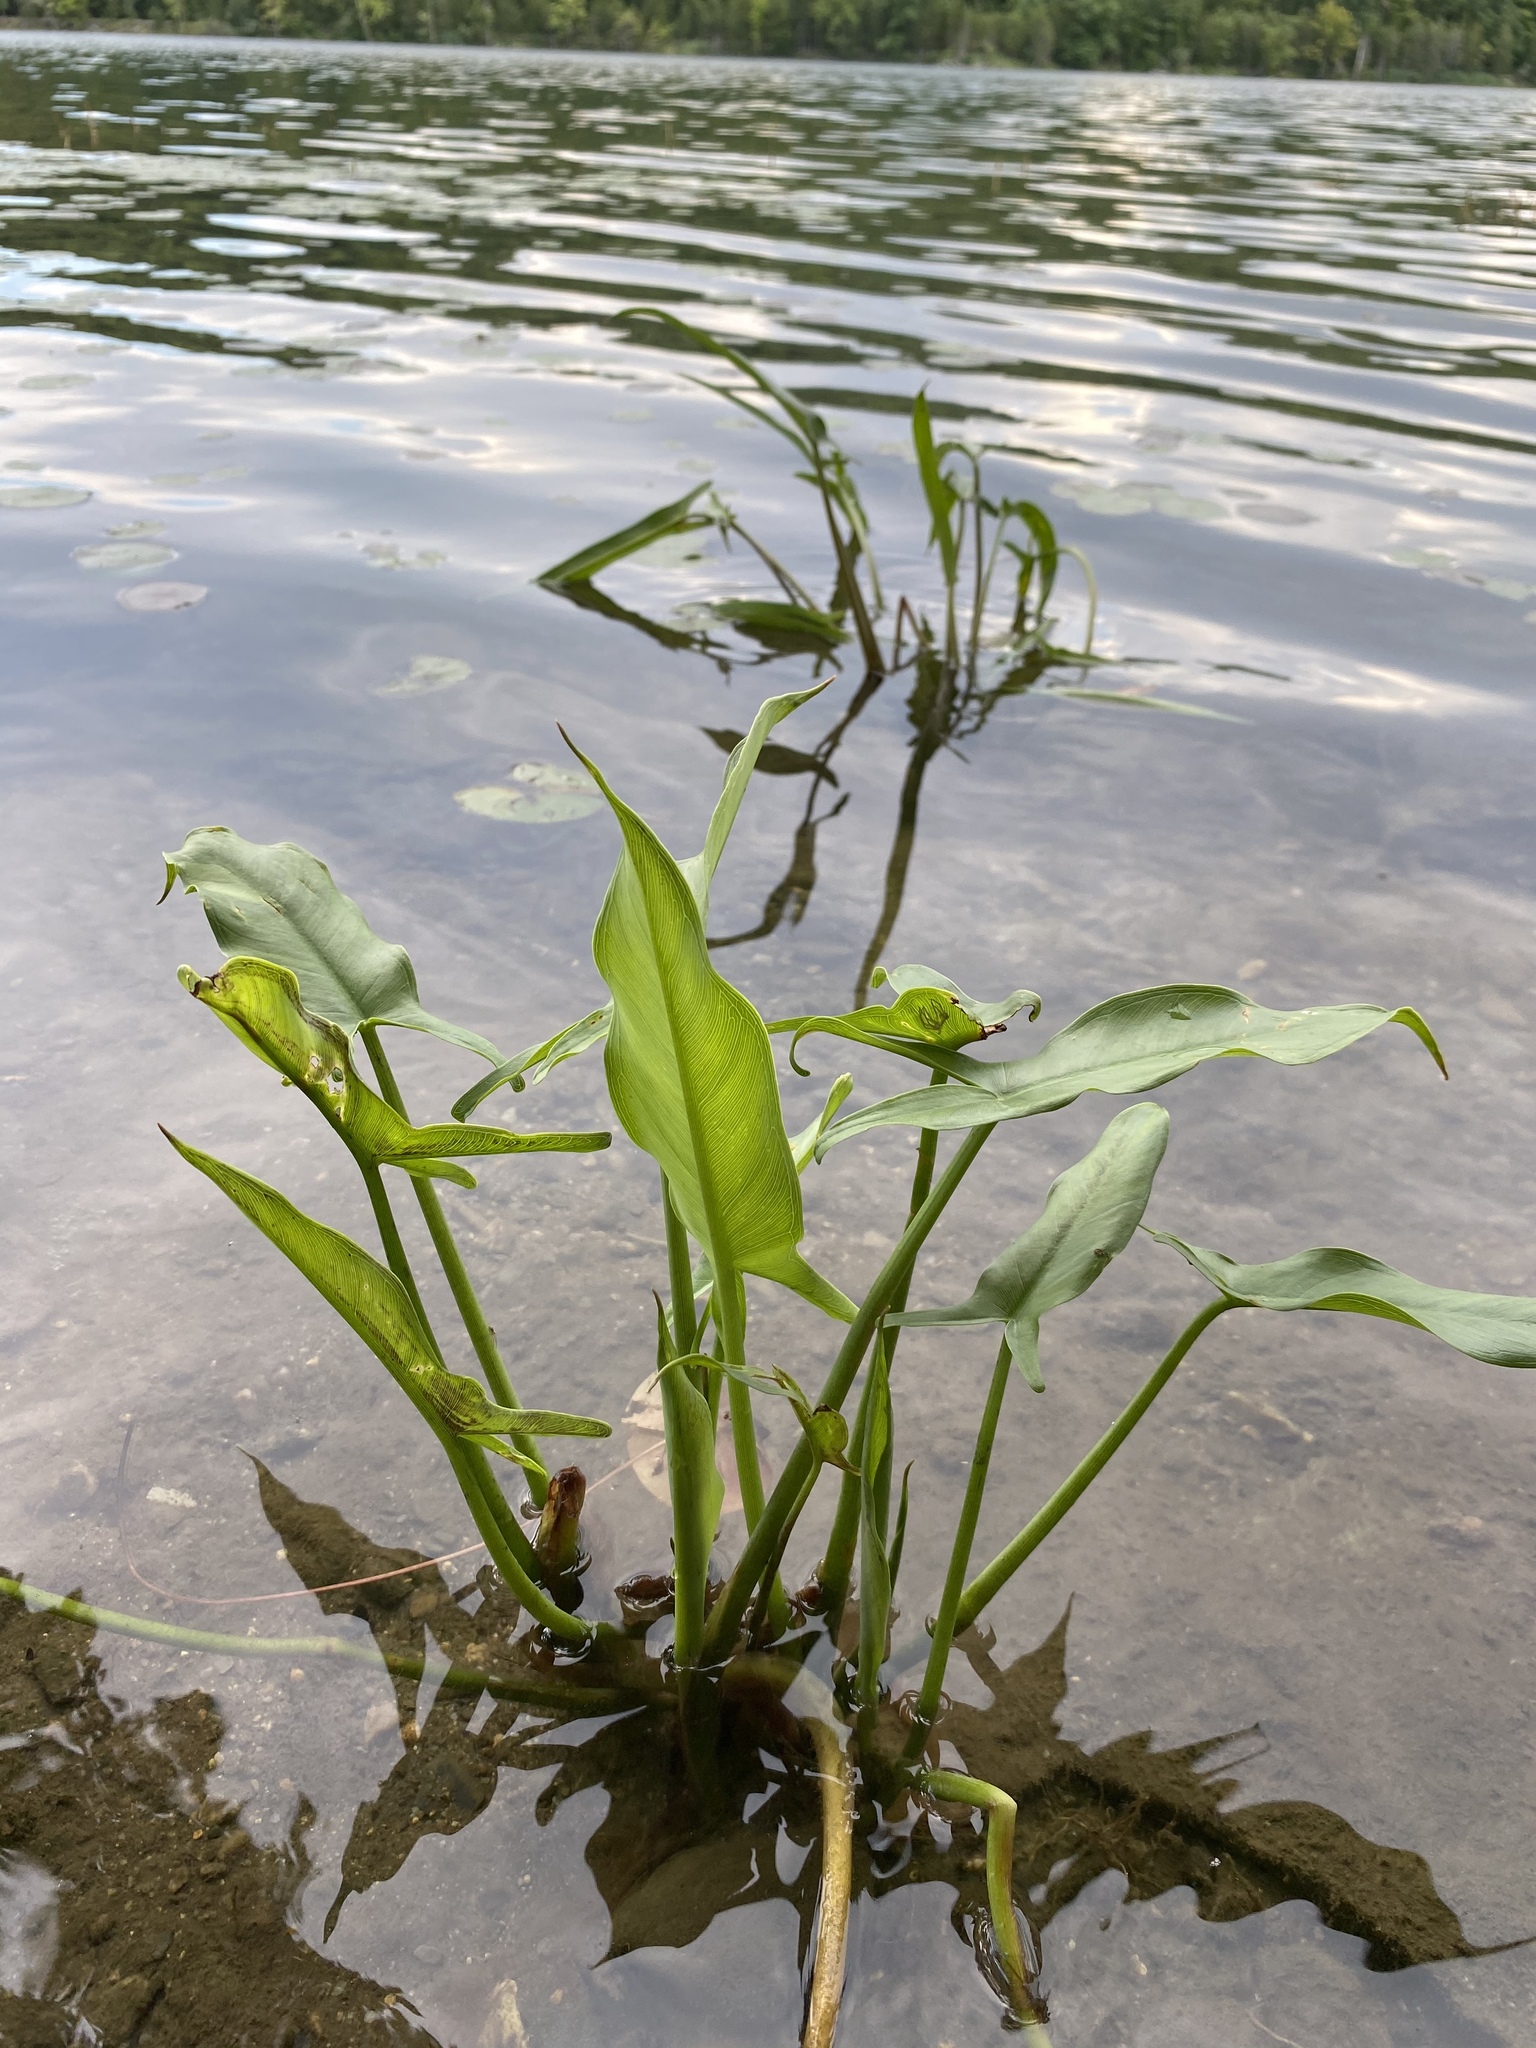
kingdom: Plantae
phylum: Tracheophyta
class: Liliopsida
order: Alismatales
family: Araceae
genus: Peltandra
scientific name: Peltandra virginica
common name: Arrow arum
